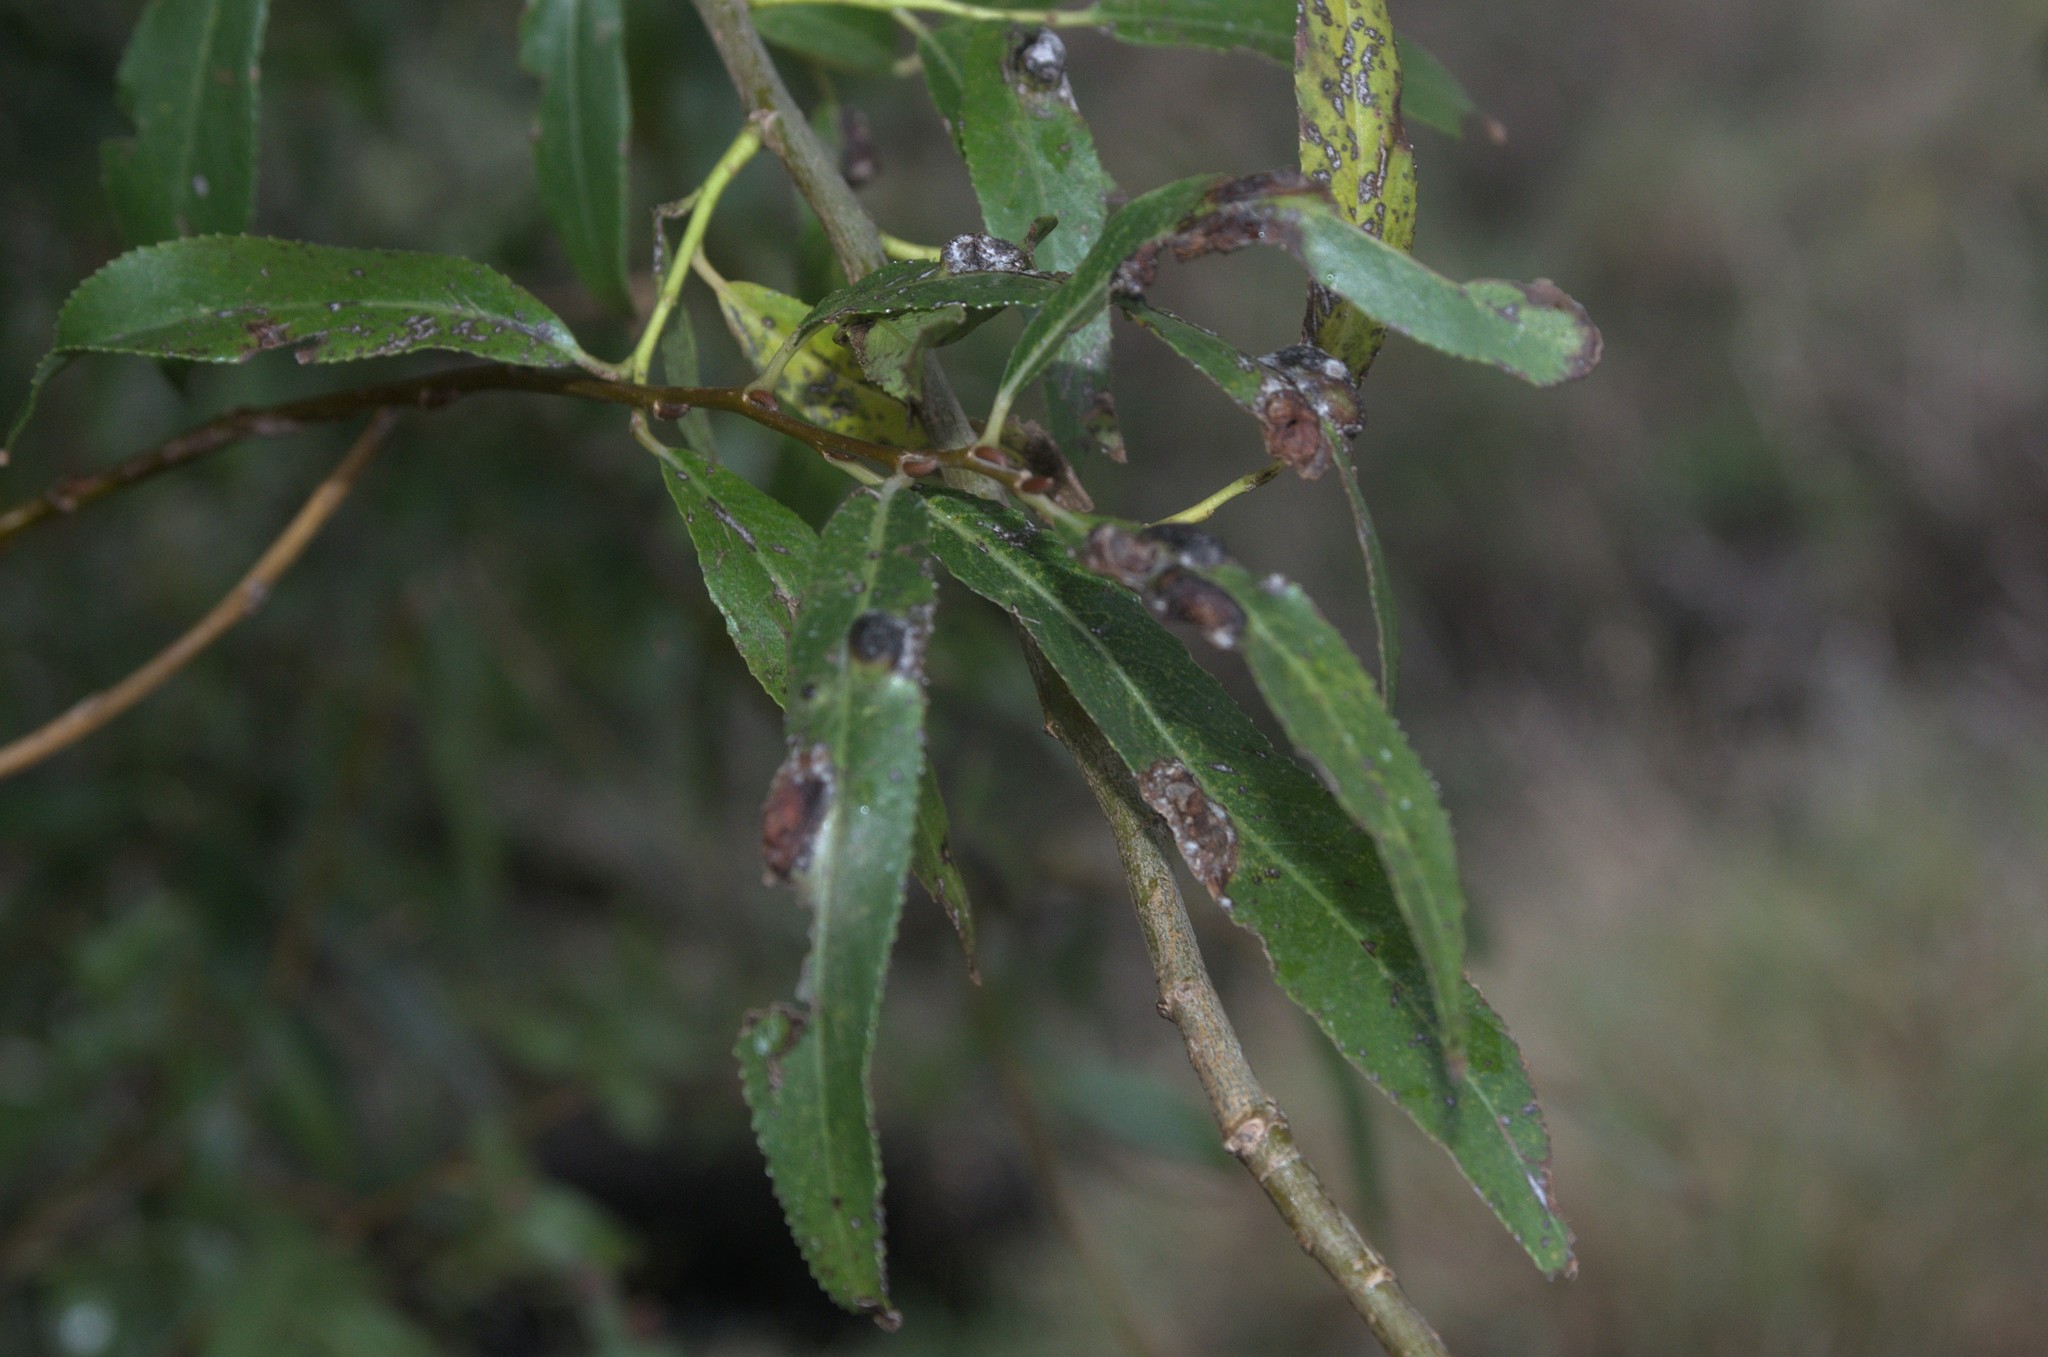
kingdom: Animalia
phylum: Arthropoda
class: Insecta
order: Hymenoptera
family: Tenthredinidae
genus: Pontania
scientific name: Pontania proxima
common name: Common sawfly
